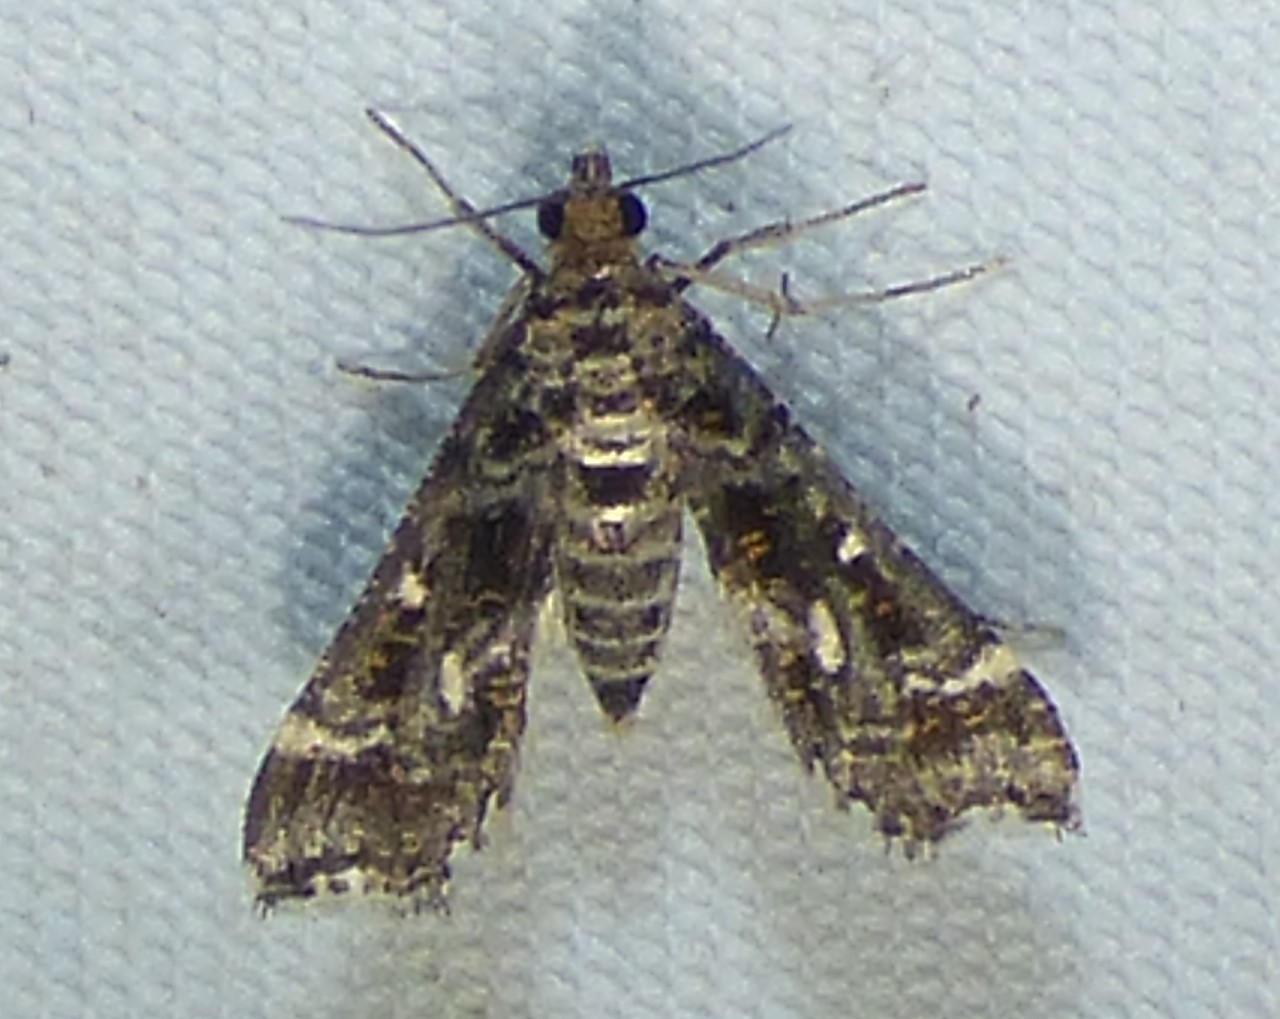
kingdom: Animalia
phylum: Arthropoda
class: Insecta
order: Lepidoptera
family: Crambidae
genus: Diasemiopsis
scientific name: Diasemiopsis ramburialis
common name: Vagrant china-mark
